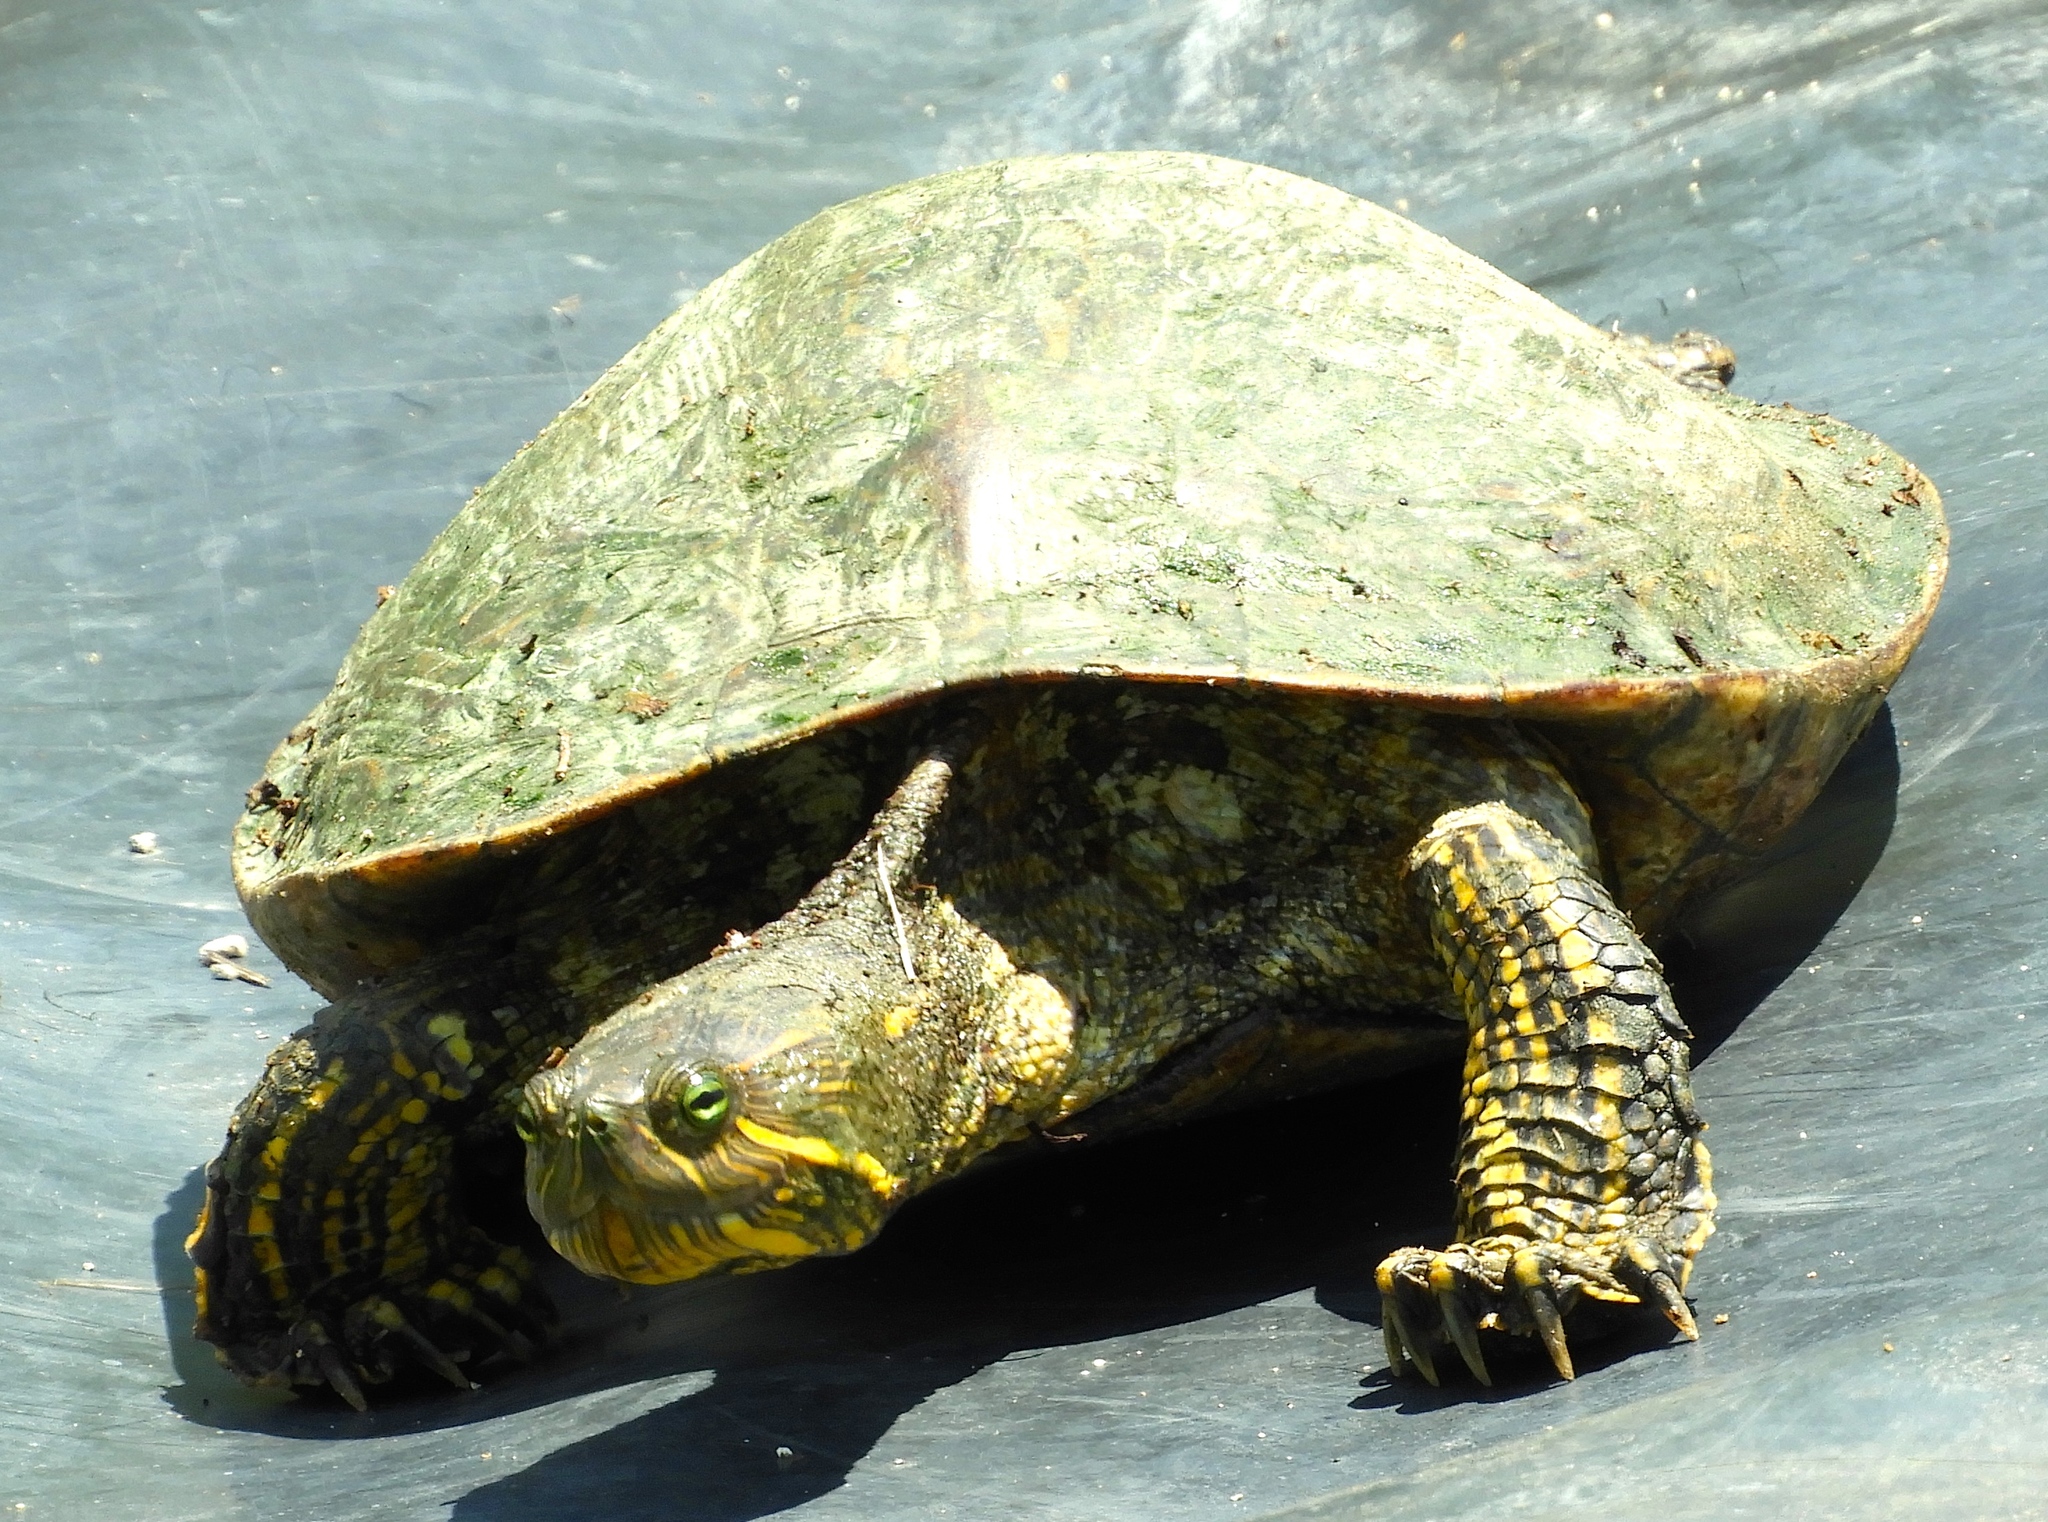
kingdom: Animalia
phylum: Chordata
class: Testudines
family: Emydidae
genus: Trachemys
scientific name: Trachemys ornata
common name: Ornate slider
